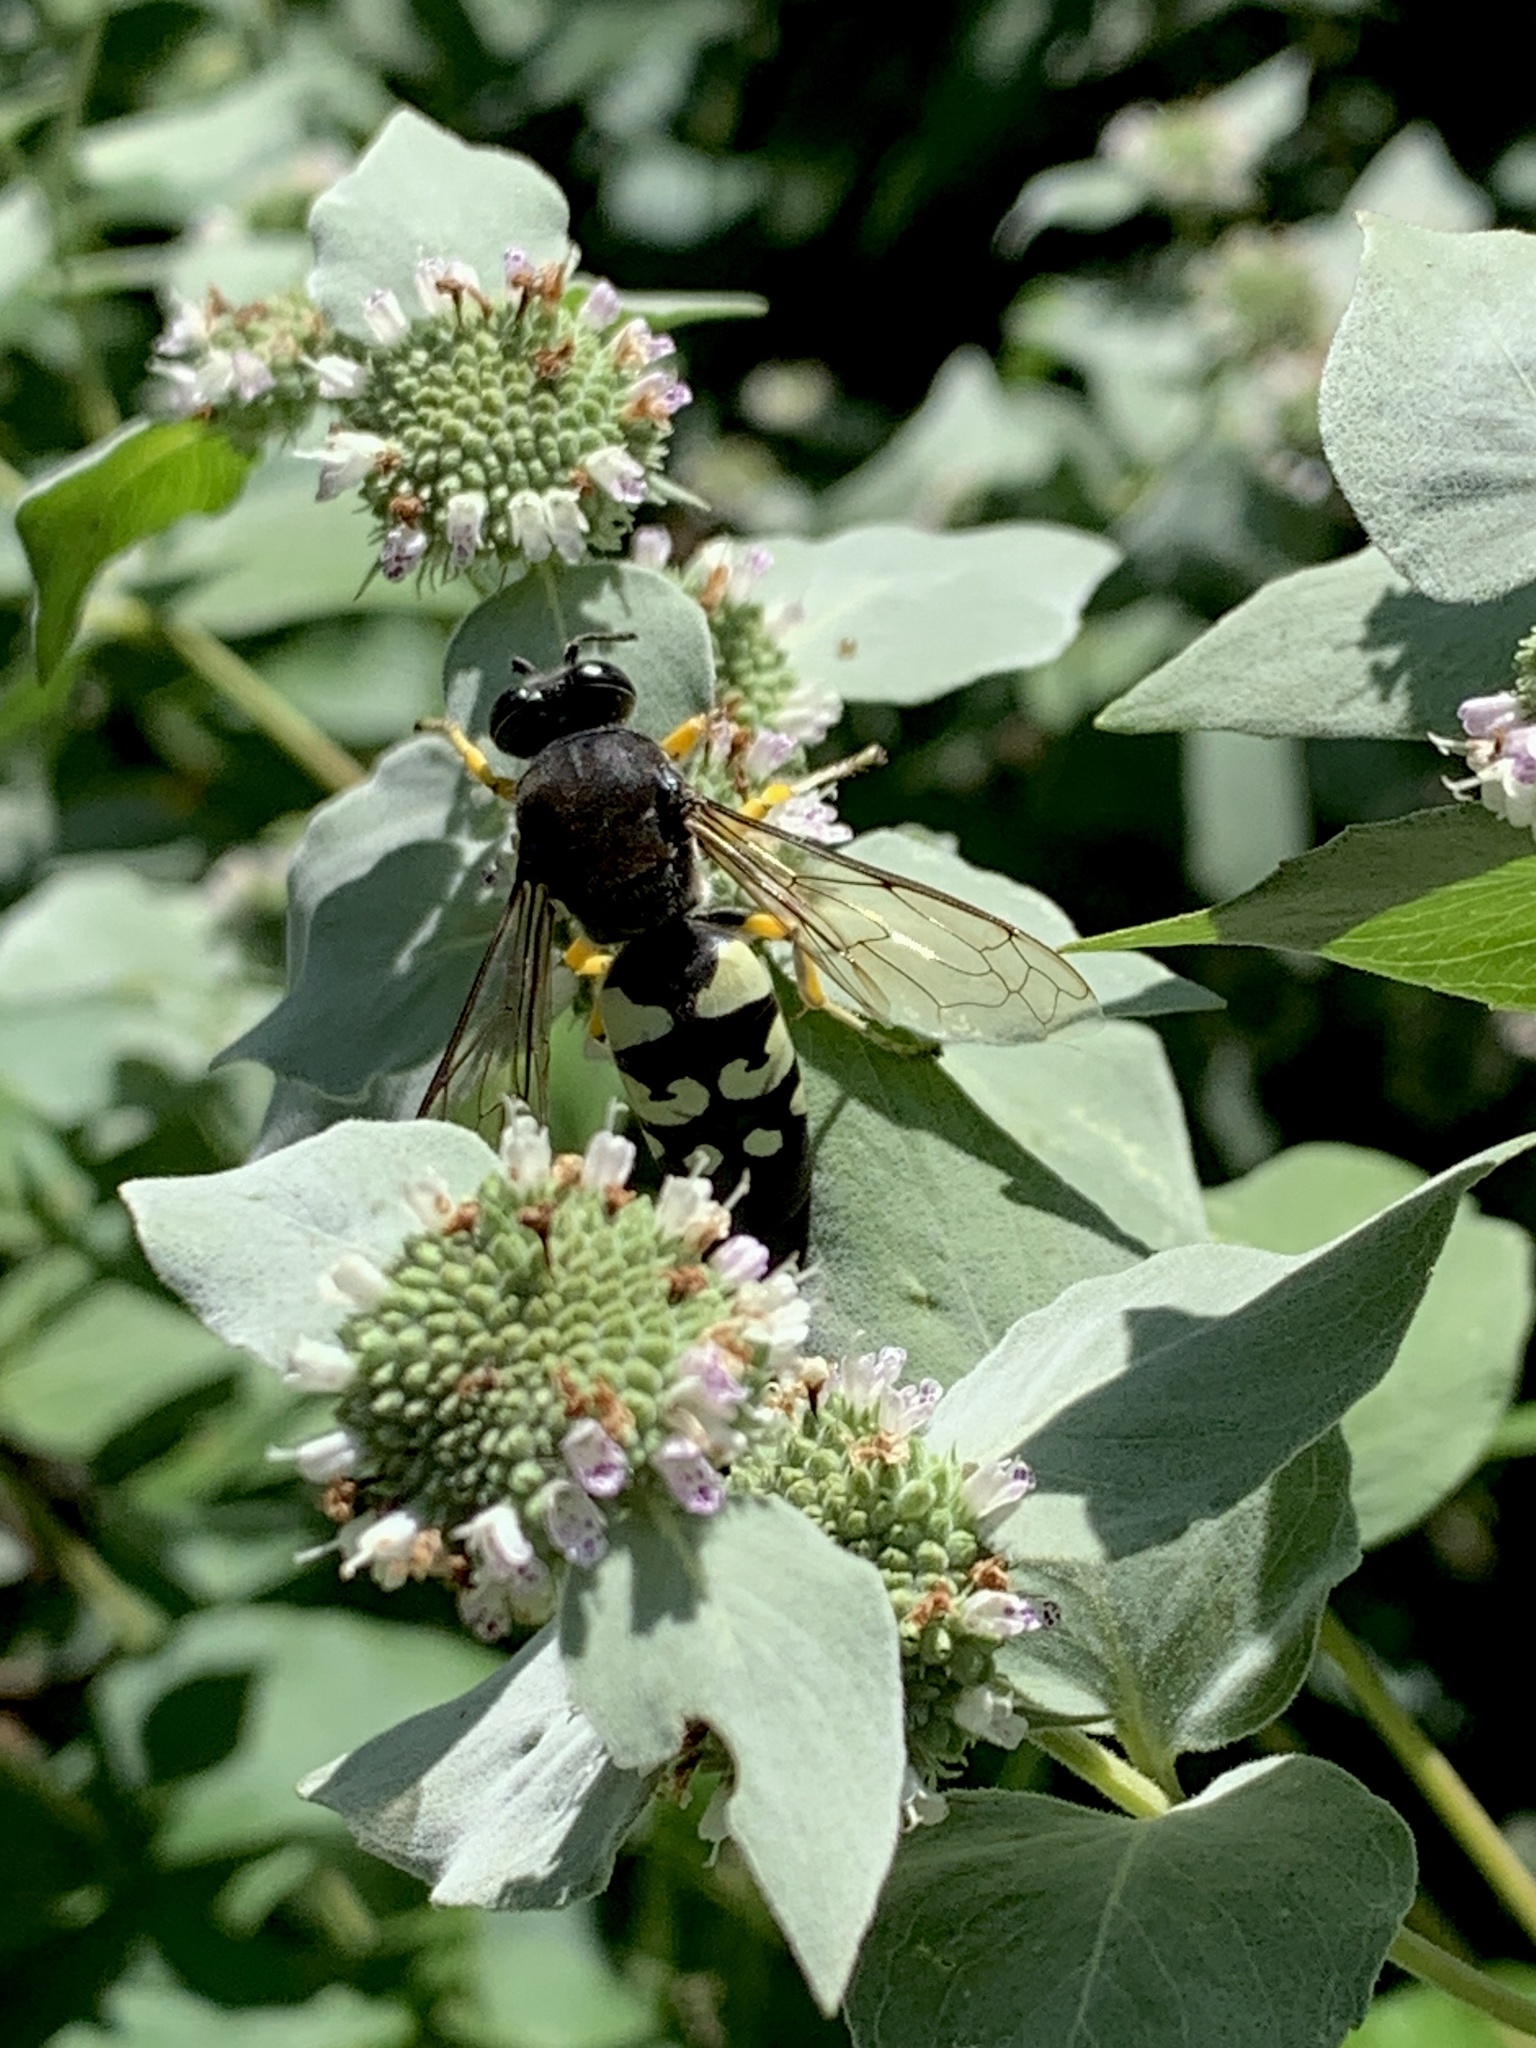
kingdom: Animalia
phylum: Arthropoda
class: Insecta
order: Hymenoptera
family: Crabronidae
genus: Stictia
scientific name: Stictia carolina
